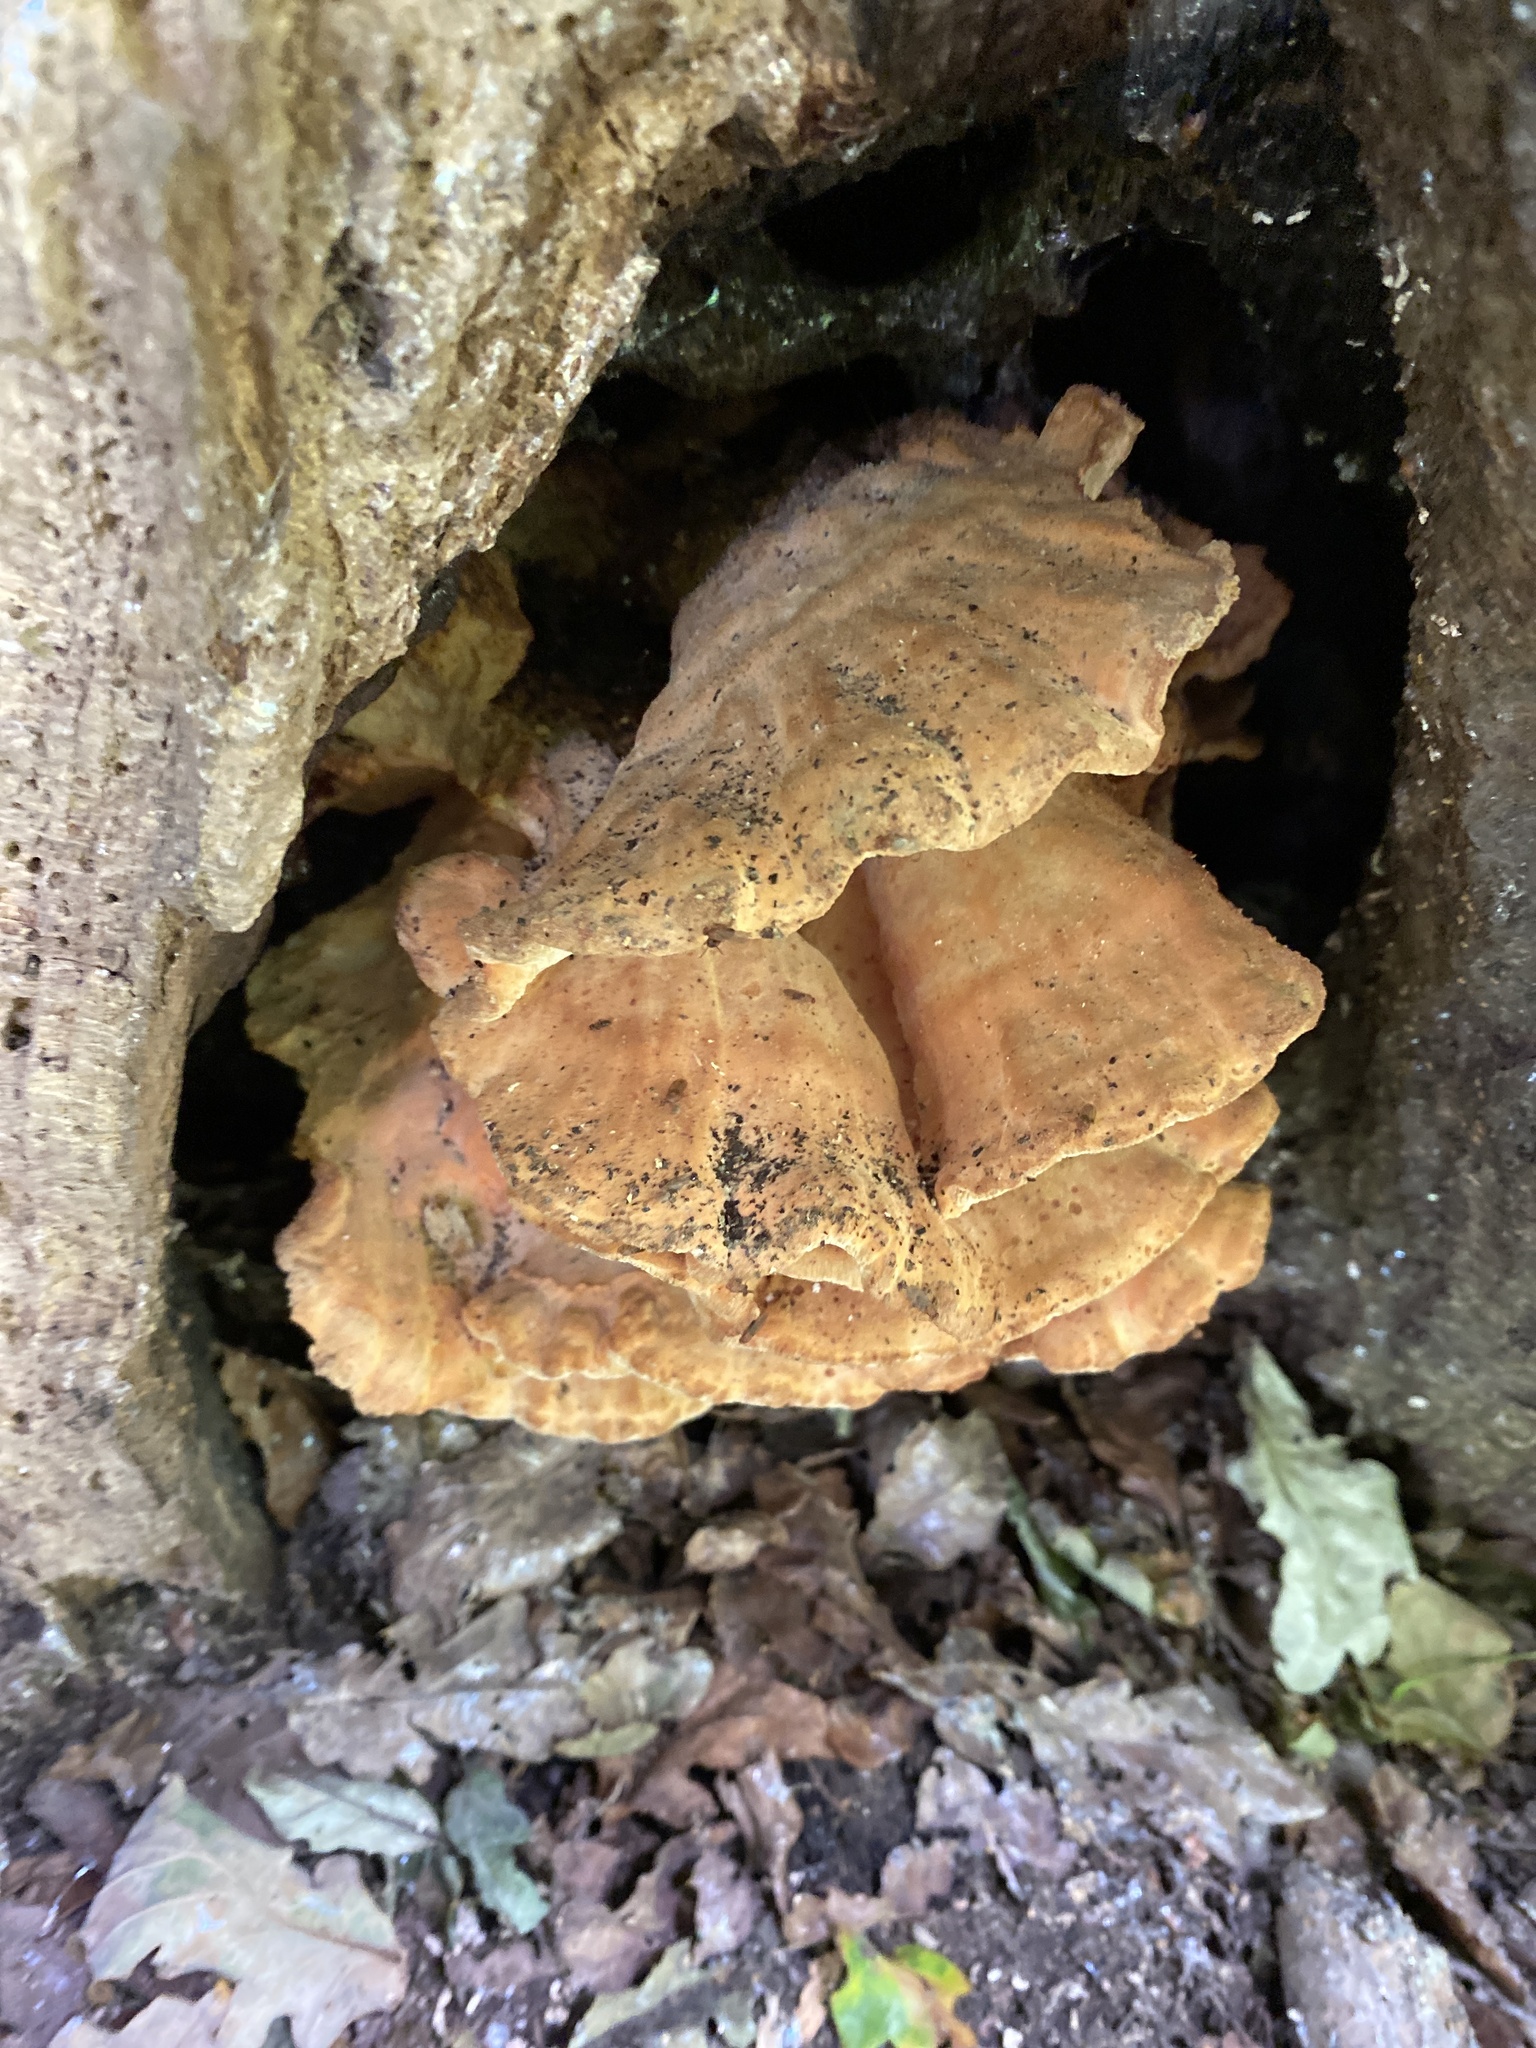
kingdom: Fungi
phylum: Basidiomycota
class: Agaricomycetes
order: Polyporales
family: Laetiporaceae
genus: Laetiporus
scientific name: Laetiporus sulphureus
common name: Chicken of the woods
